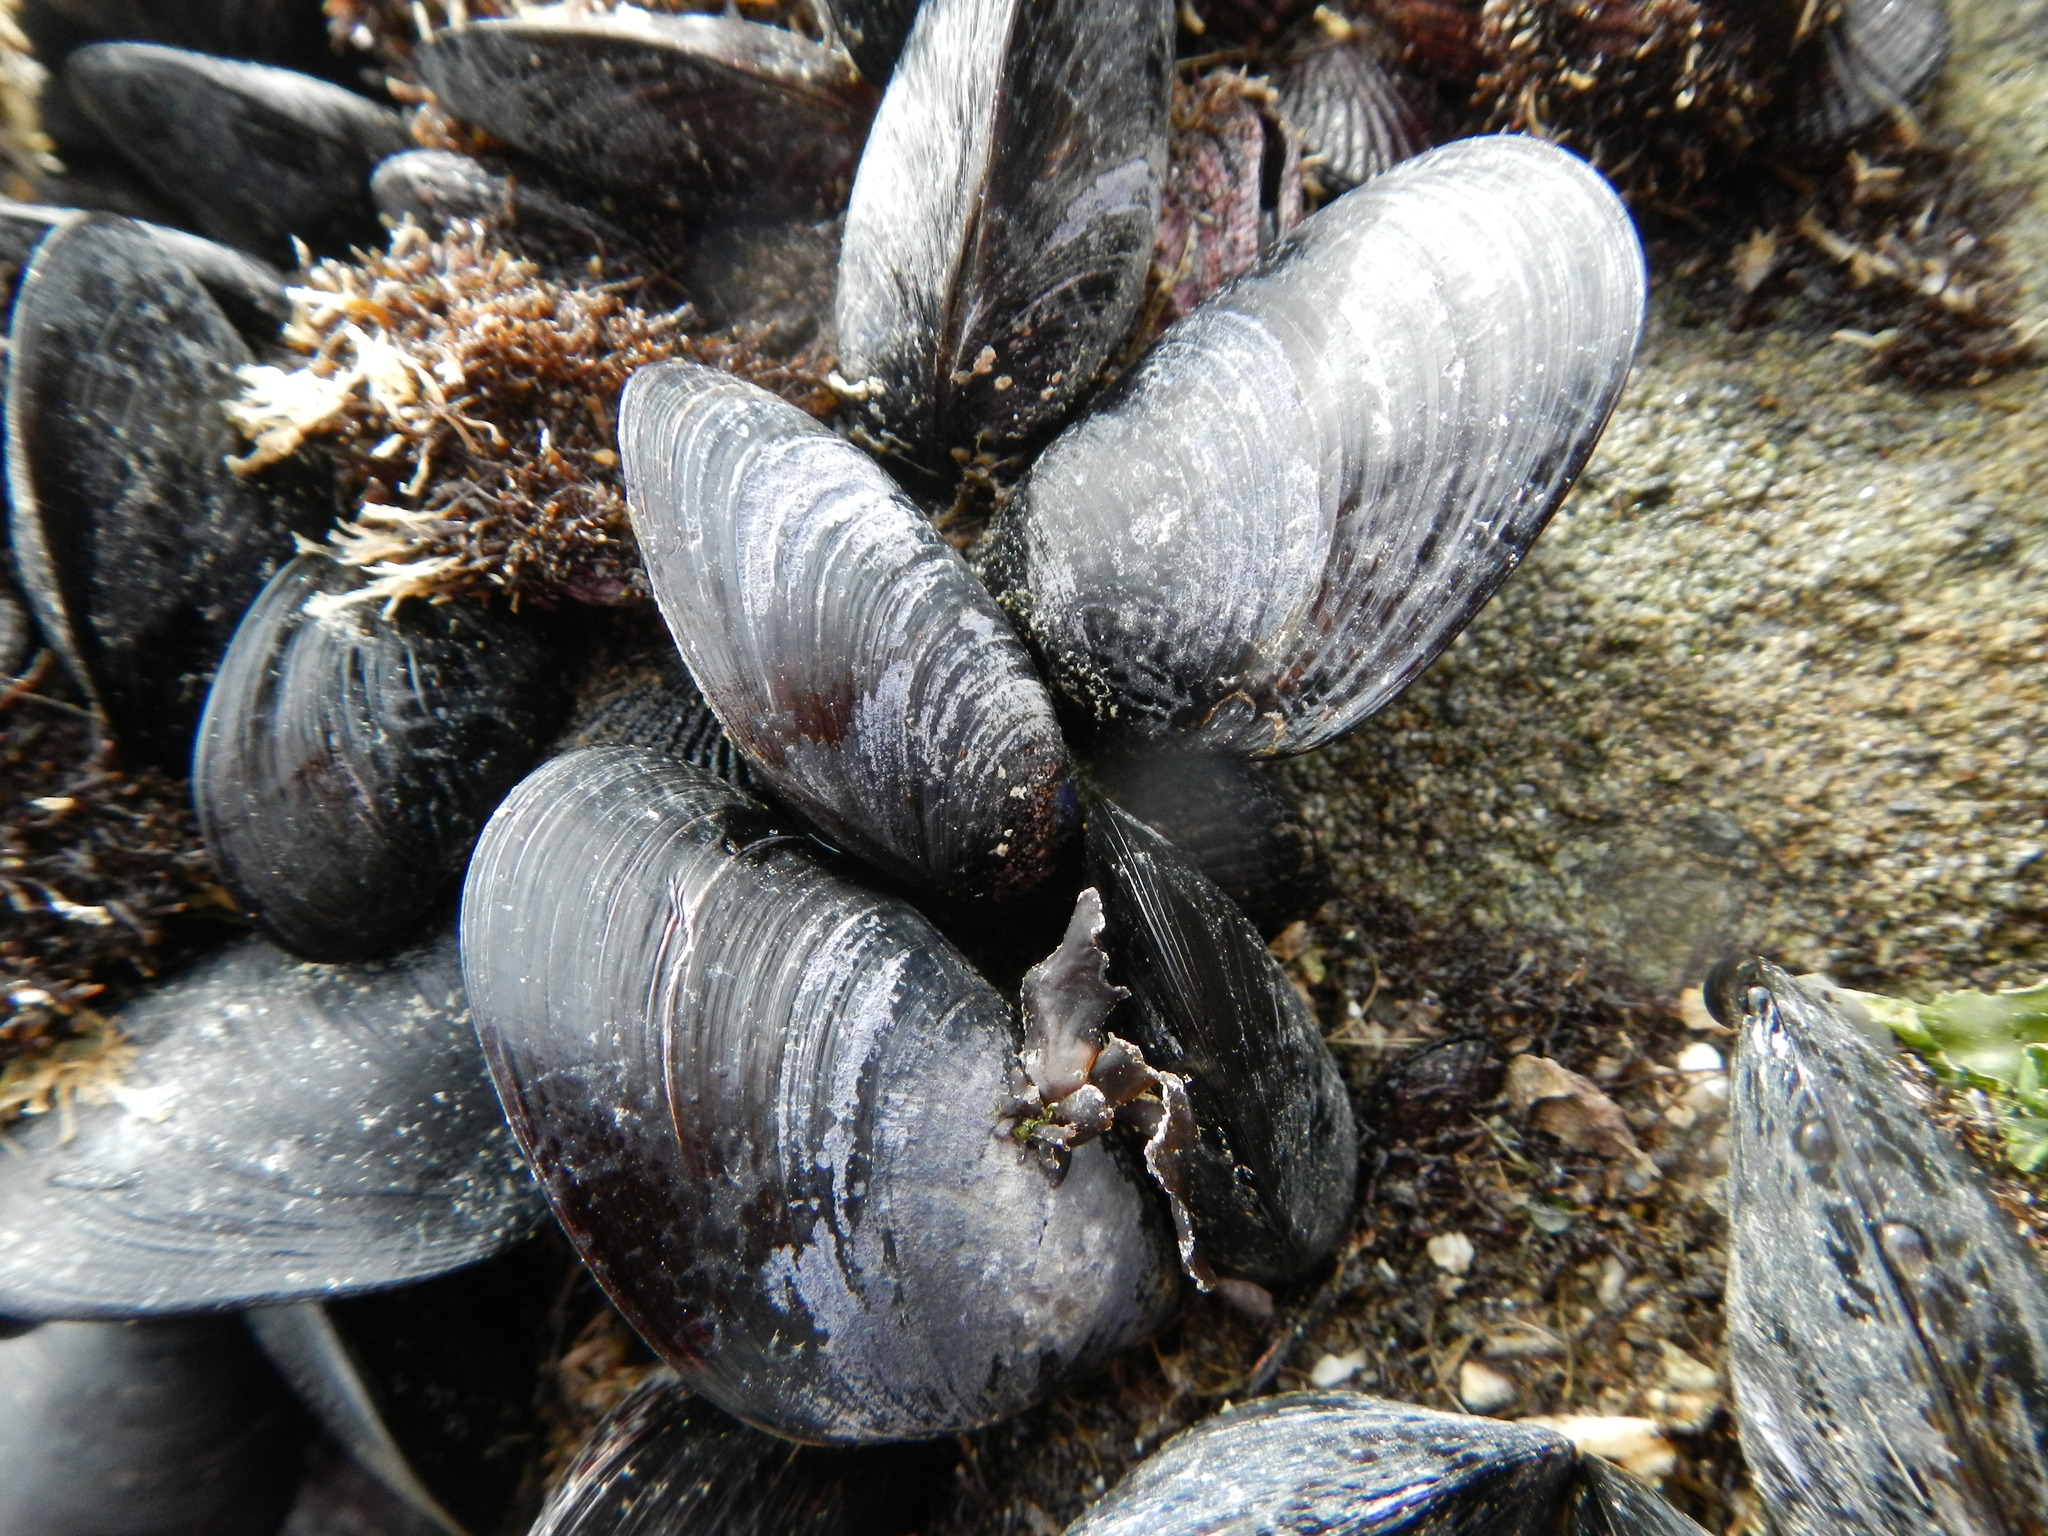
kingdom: Animalia
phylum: Mollusca
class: Bivalvia
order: Mytilida
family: Mytilidae
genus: Mytilus
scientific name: Mytilus chilensis
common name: Chilean mussel
